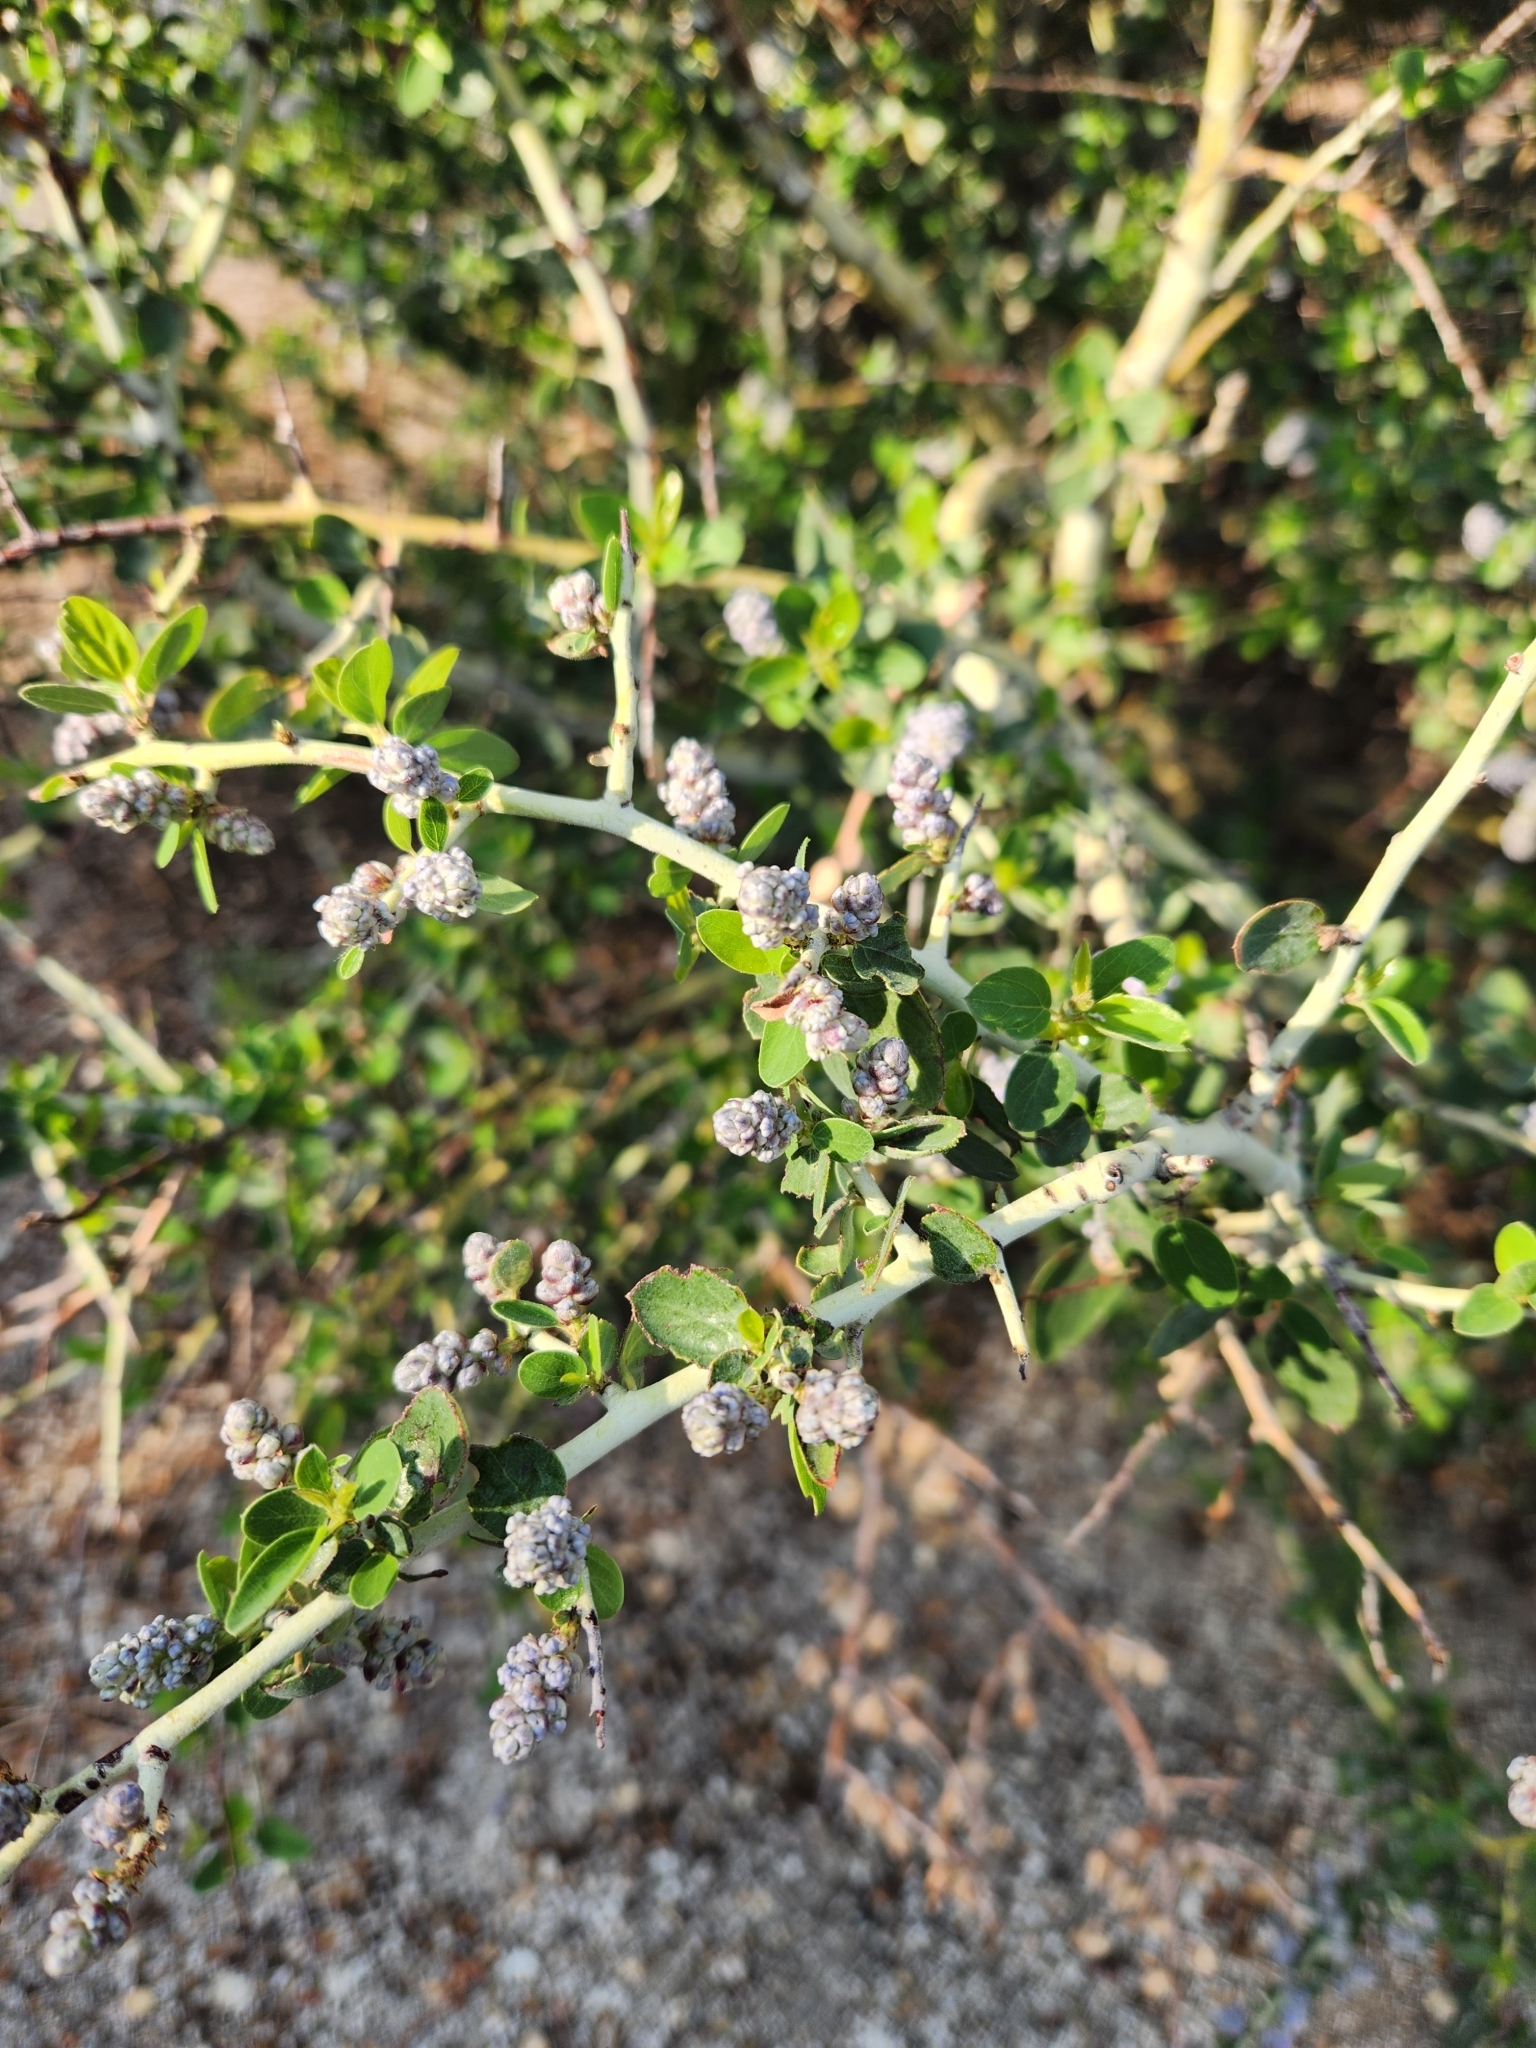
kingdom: Plantae
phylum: Tracheophyta
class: Magnoliopsida
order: Rosales
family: Rhamnaceae
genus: Ceanothus
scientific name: Ceanothus leucodermis
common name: Chaparral whitethorn
